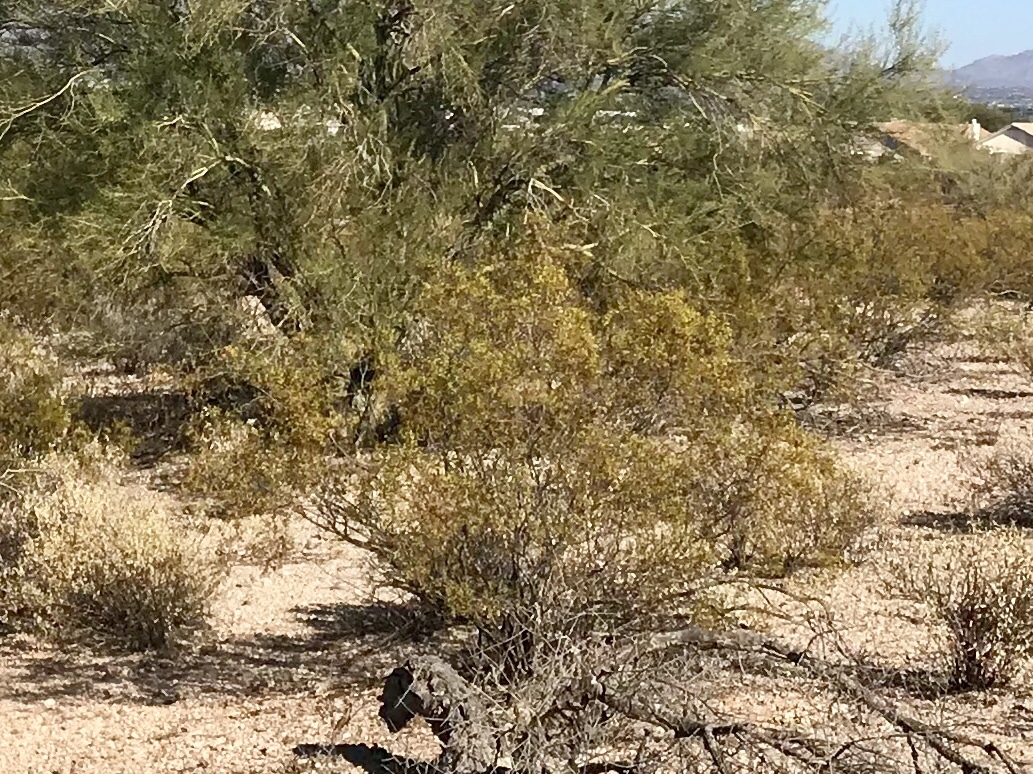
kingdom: Plantae
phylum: Tracheophyta
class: Magnoliopsida
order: Zygophyllales
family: Zygophyllaceae
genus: Larrea
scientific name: Larrea tridentata
